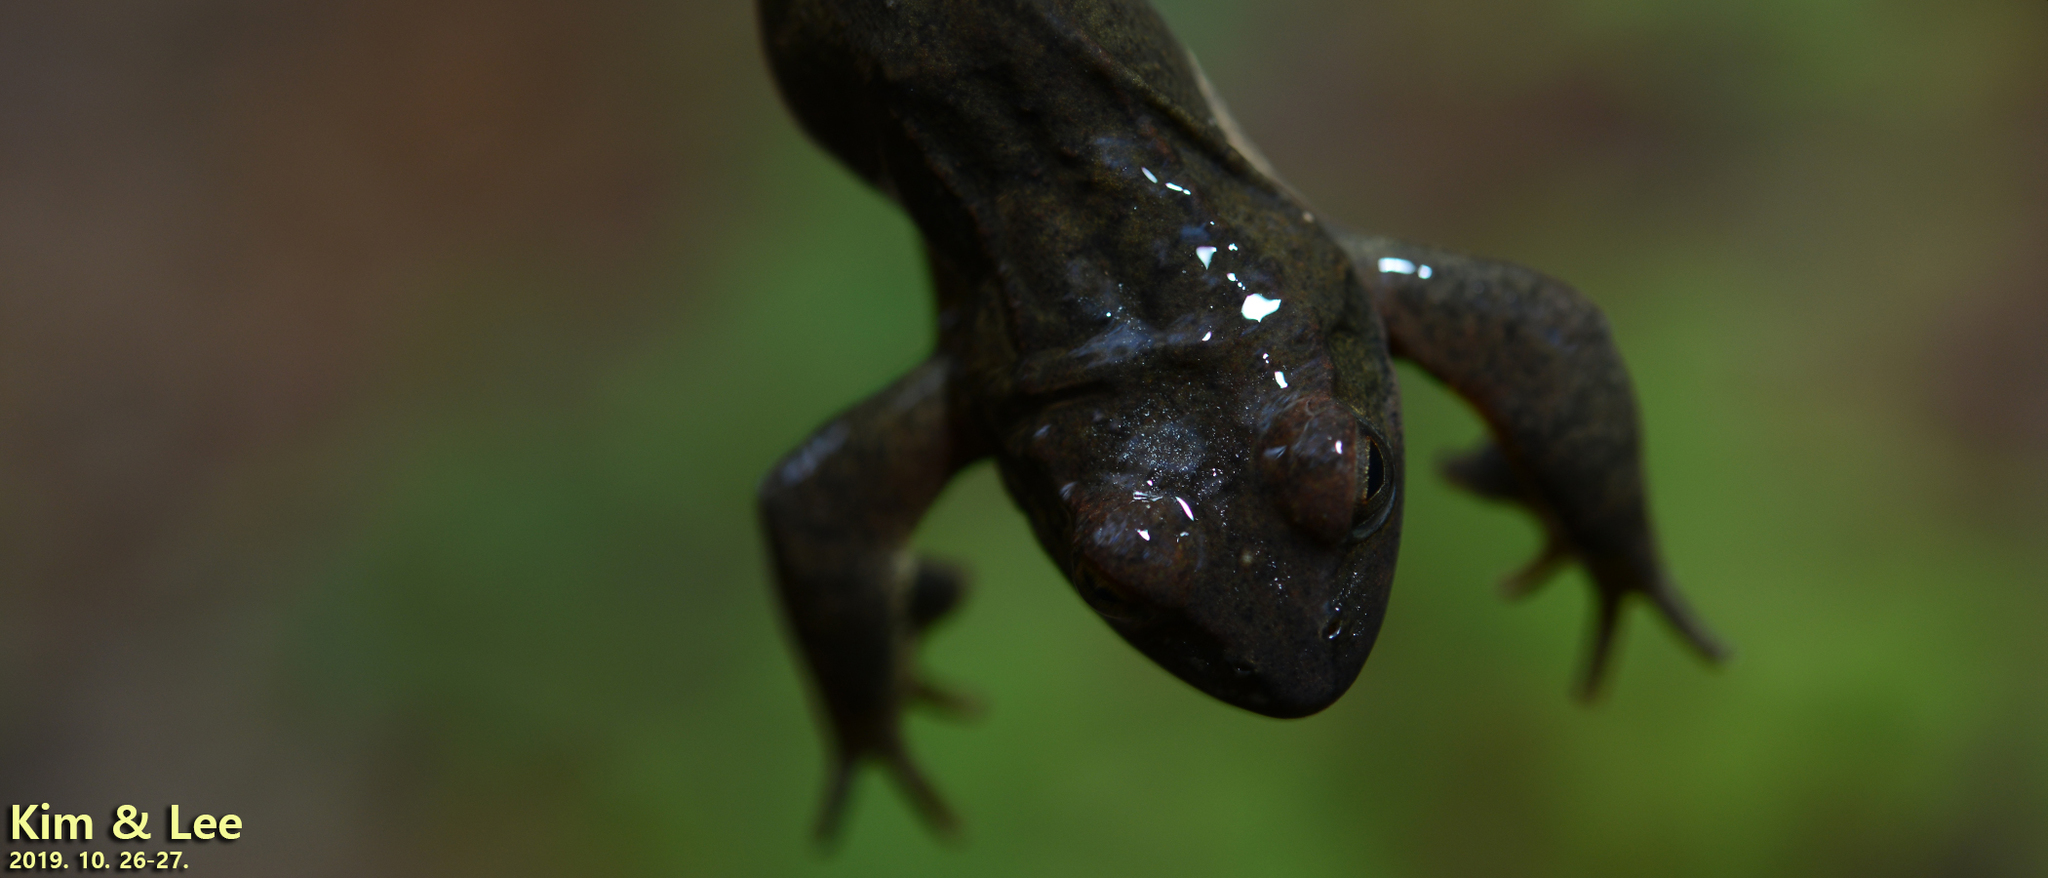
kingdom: Animalia
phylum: Chordata
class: Amphibia
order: Anura
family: Ranidae
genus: Rana
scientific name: Rana huanrenensis
